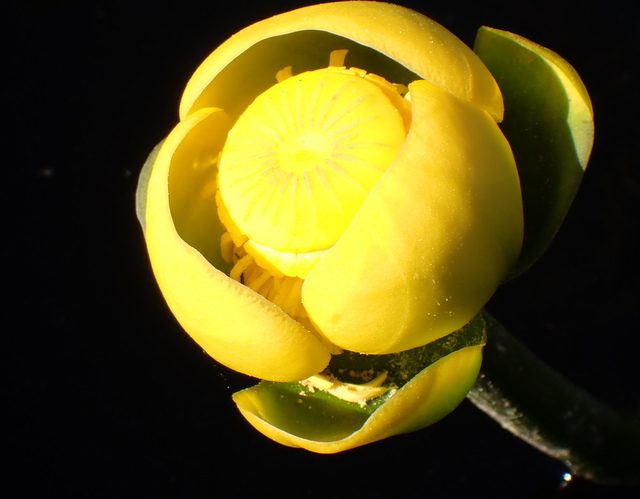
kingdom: Plantae
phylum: Tracheophyta
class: Magnoliopsida
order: Nymphaeales
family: Nymphaeaceae
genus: Nuphar
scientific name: Nuphar advena
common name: Spatter-dock
